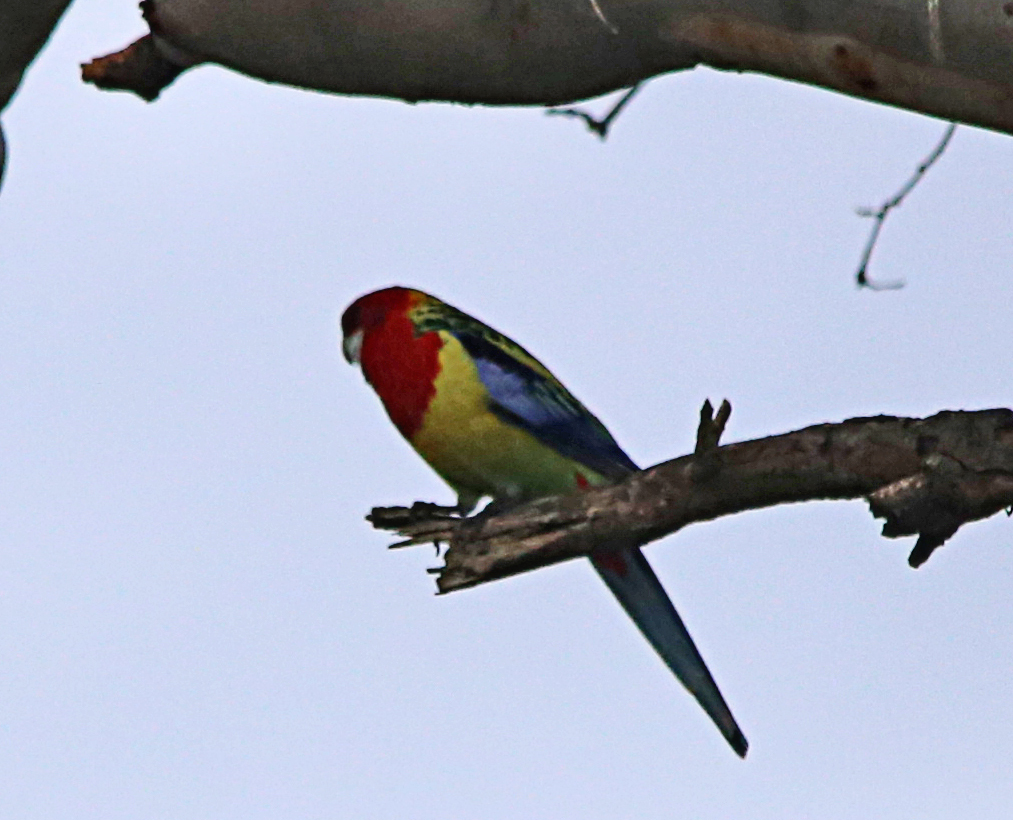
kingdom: Animalia
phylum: Chordata
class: Aves
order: Psittaciformes
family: Psittacidae
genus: Platycercus
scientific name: Platycercus eximius
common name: Eastern rosella
